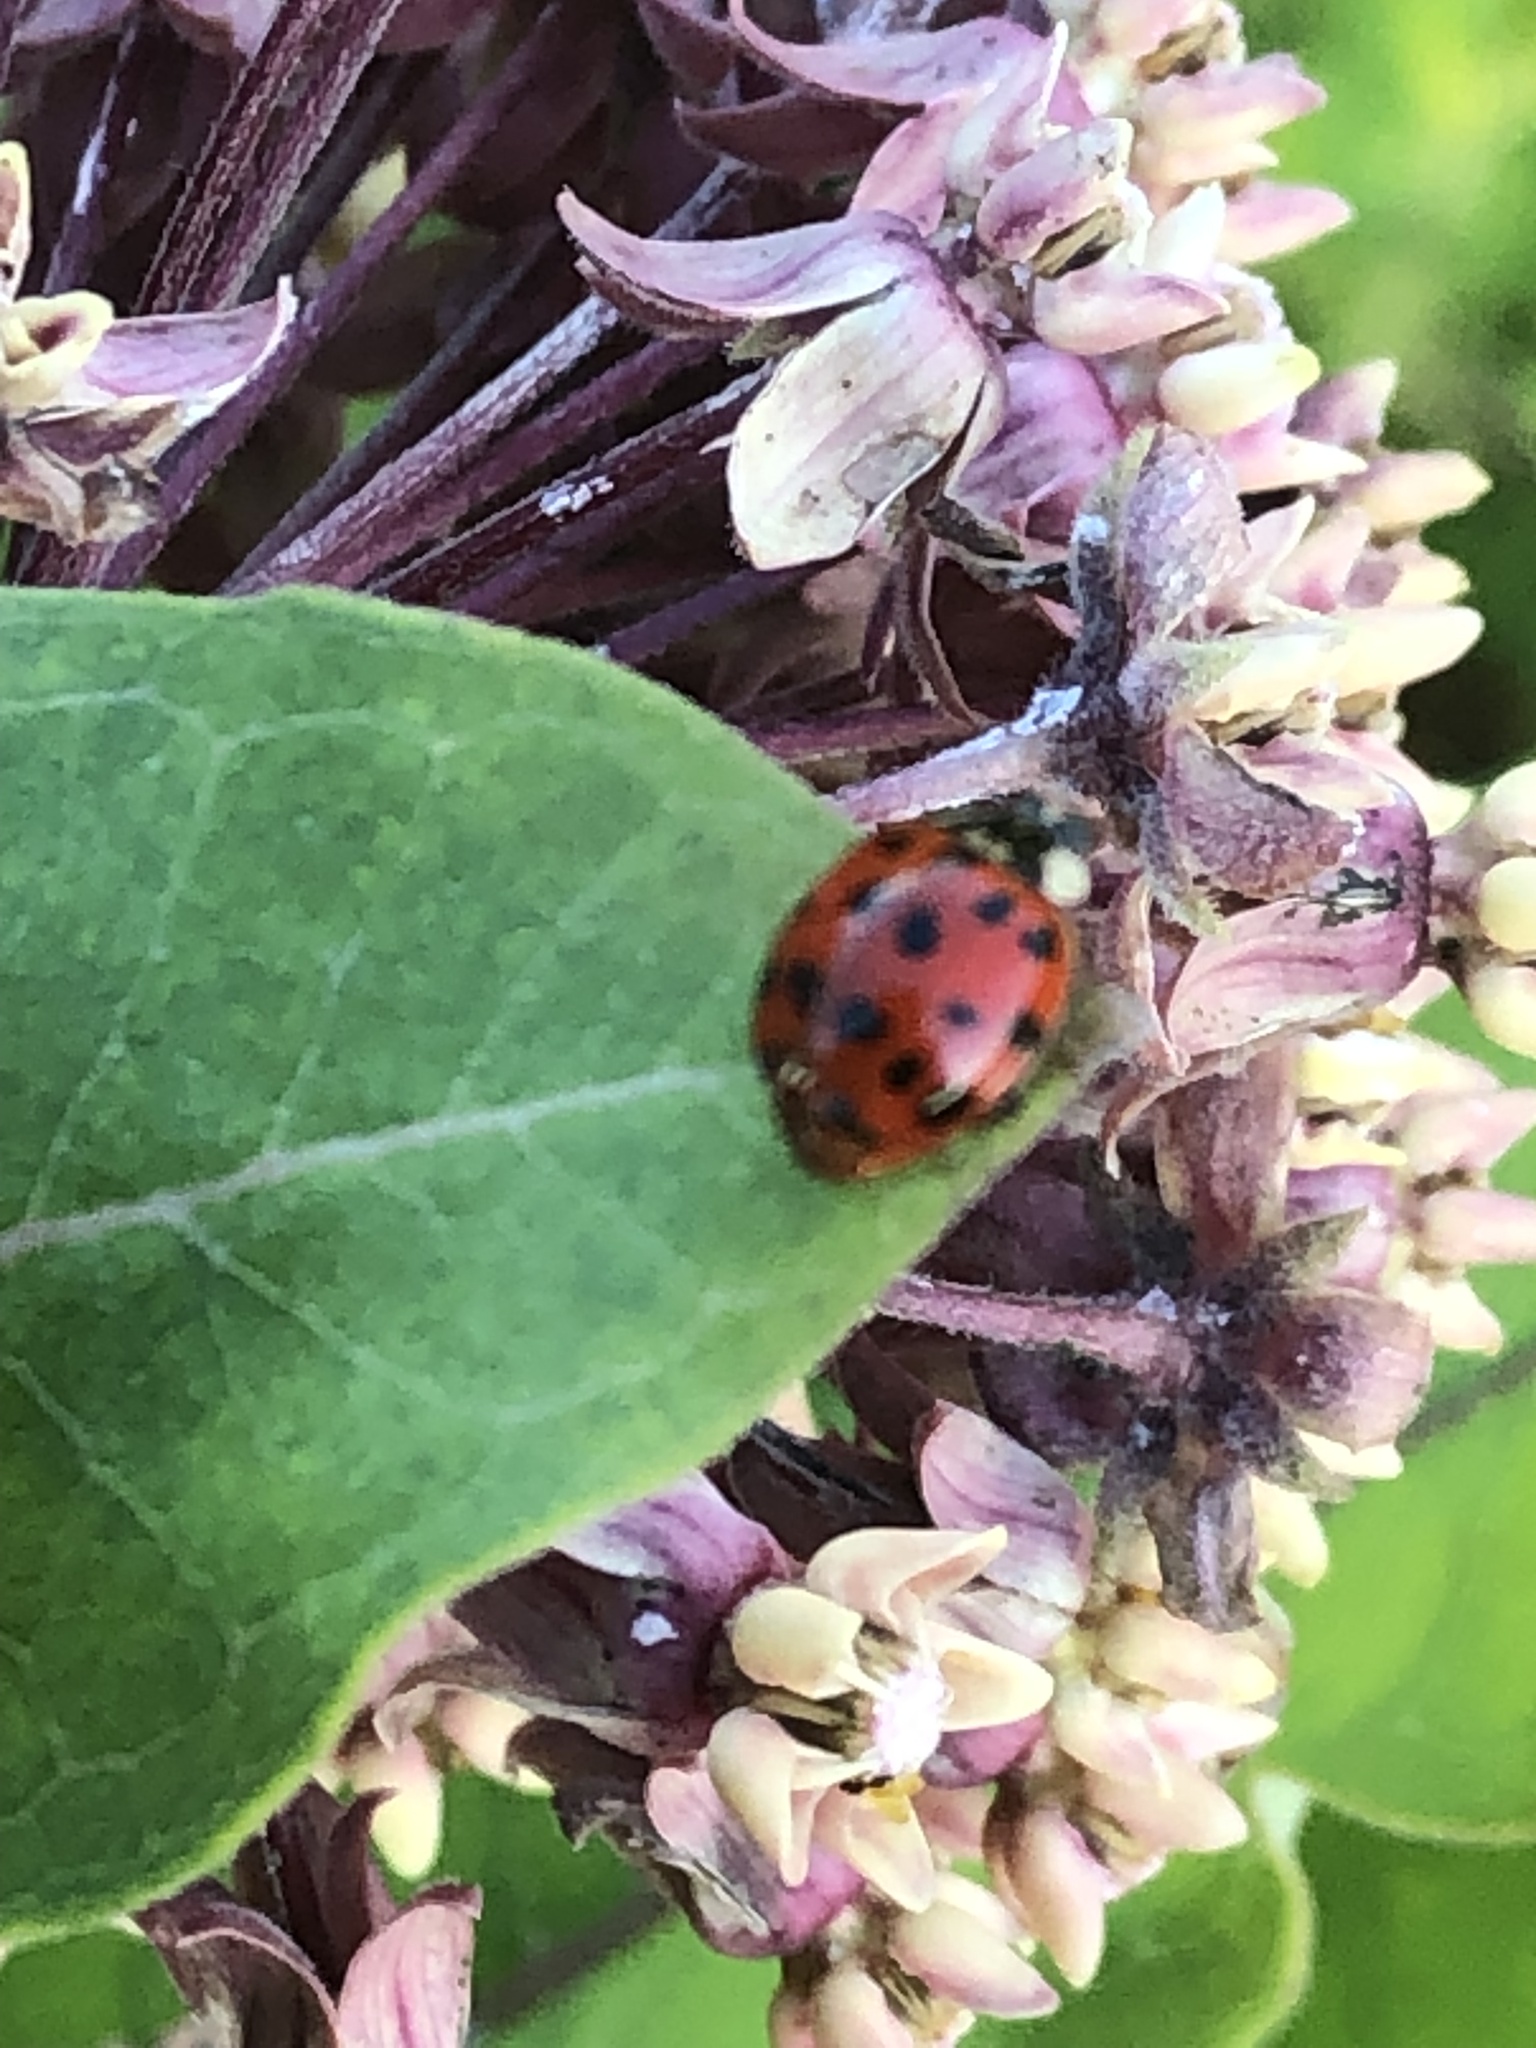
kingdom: Animalia
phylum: Arthropoda
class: Insecta
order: Coleoptera
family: Coccinellidae
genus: Harmonia
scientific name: Harmonia axyridis
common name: Harlequin ladybird
